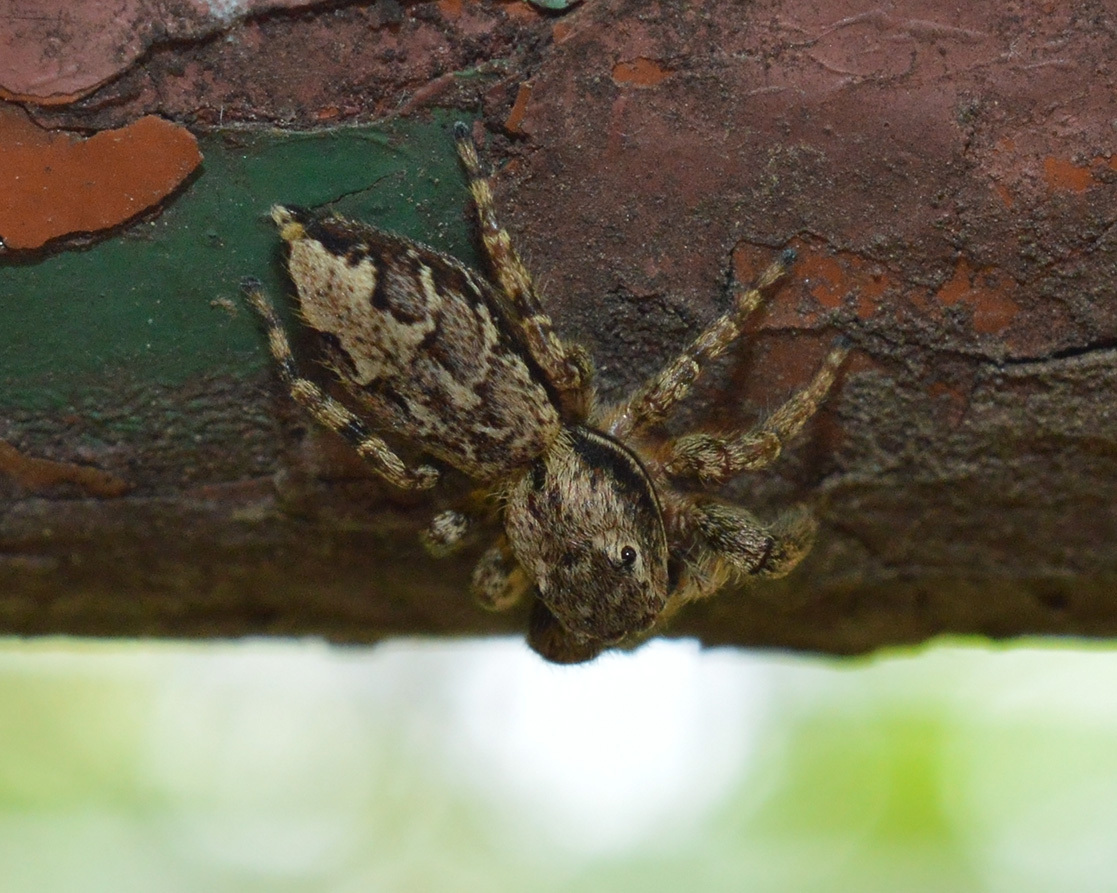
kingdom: Animalia
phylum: Arthropoda
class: Arachnida
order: Araneae
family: Salticidae
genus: Marpissa
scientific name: Marpissa muscosa
